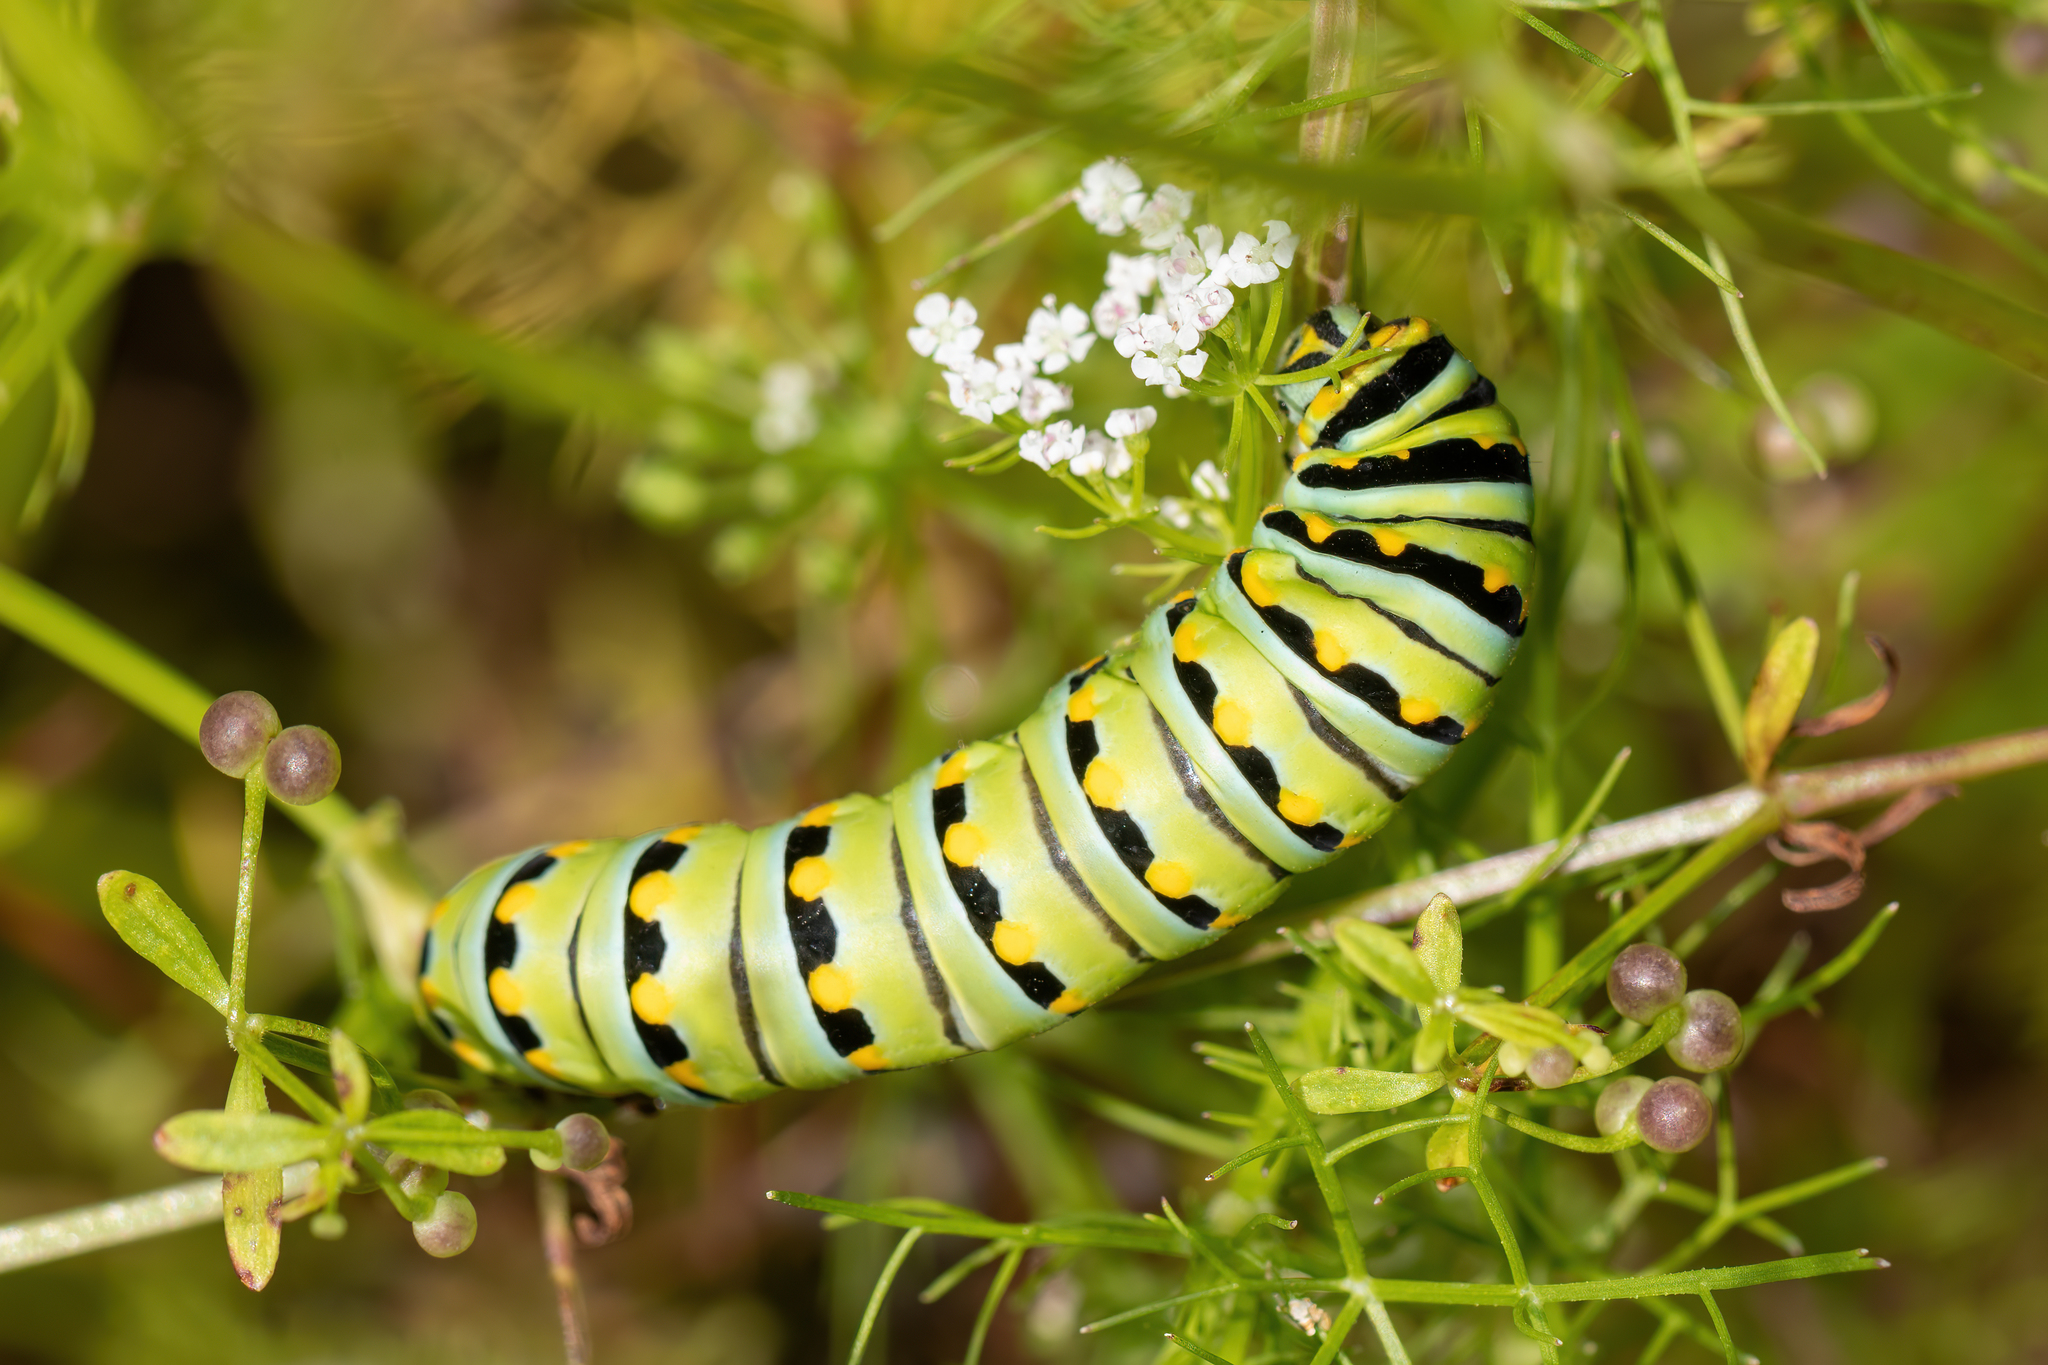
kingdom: Animalia
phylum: Arthropoda
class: Insecta
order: Lepidoptera
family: Papilionidae
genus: Papilio
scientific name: Papilio polyxenes
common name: Black swallowtail
